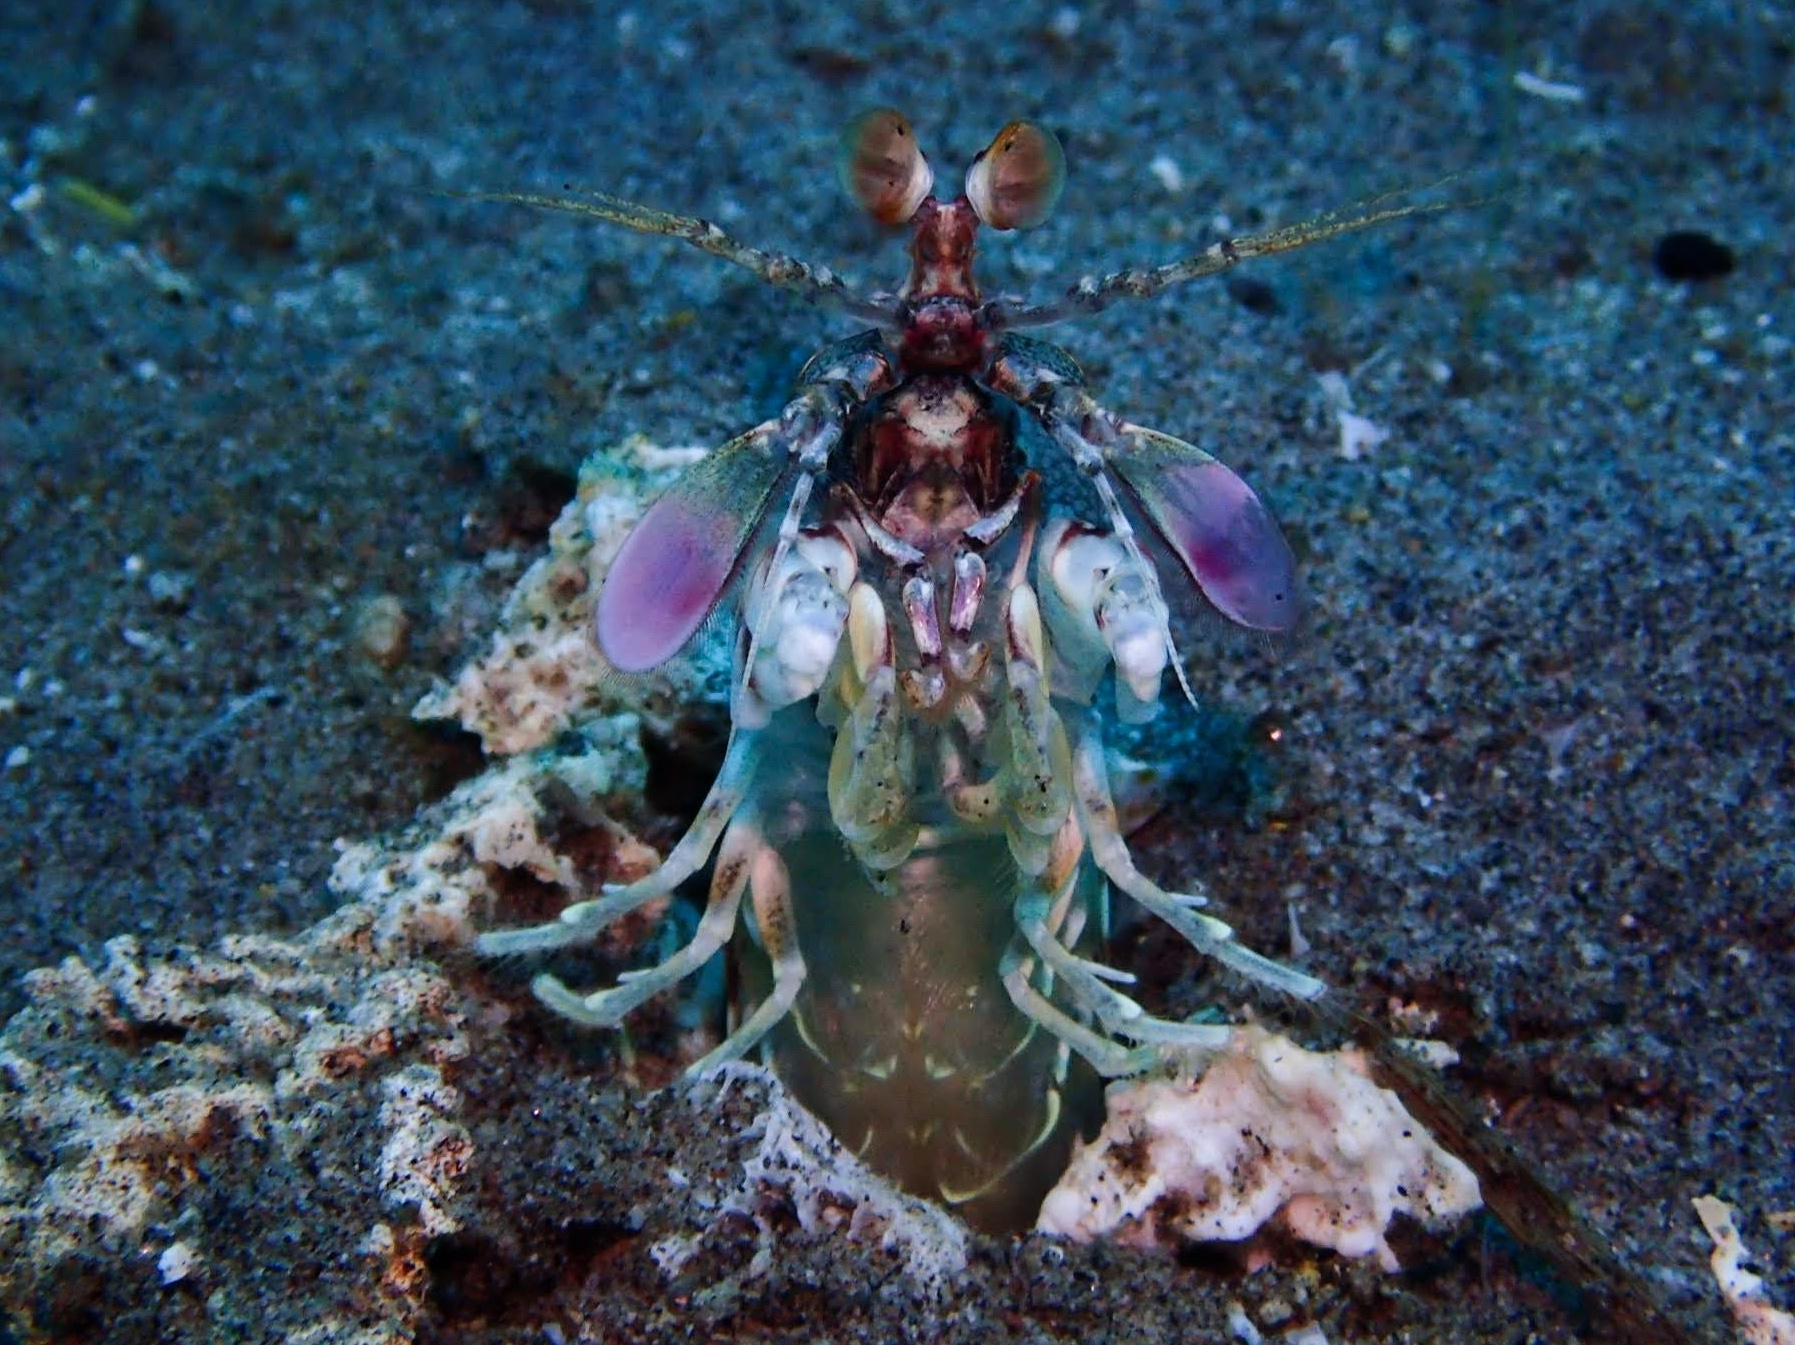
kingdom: Animalia
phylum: Arthropoda
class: Malacostraca
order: Stomatopoda
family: Odontodactylidae
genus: Odontodactylus
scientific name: Odontodactylus latirostris
